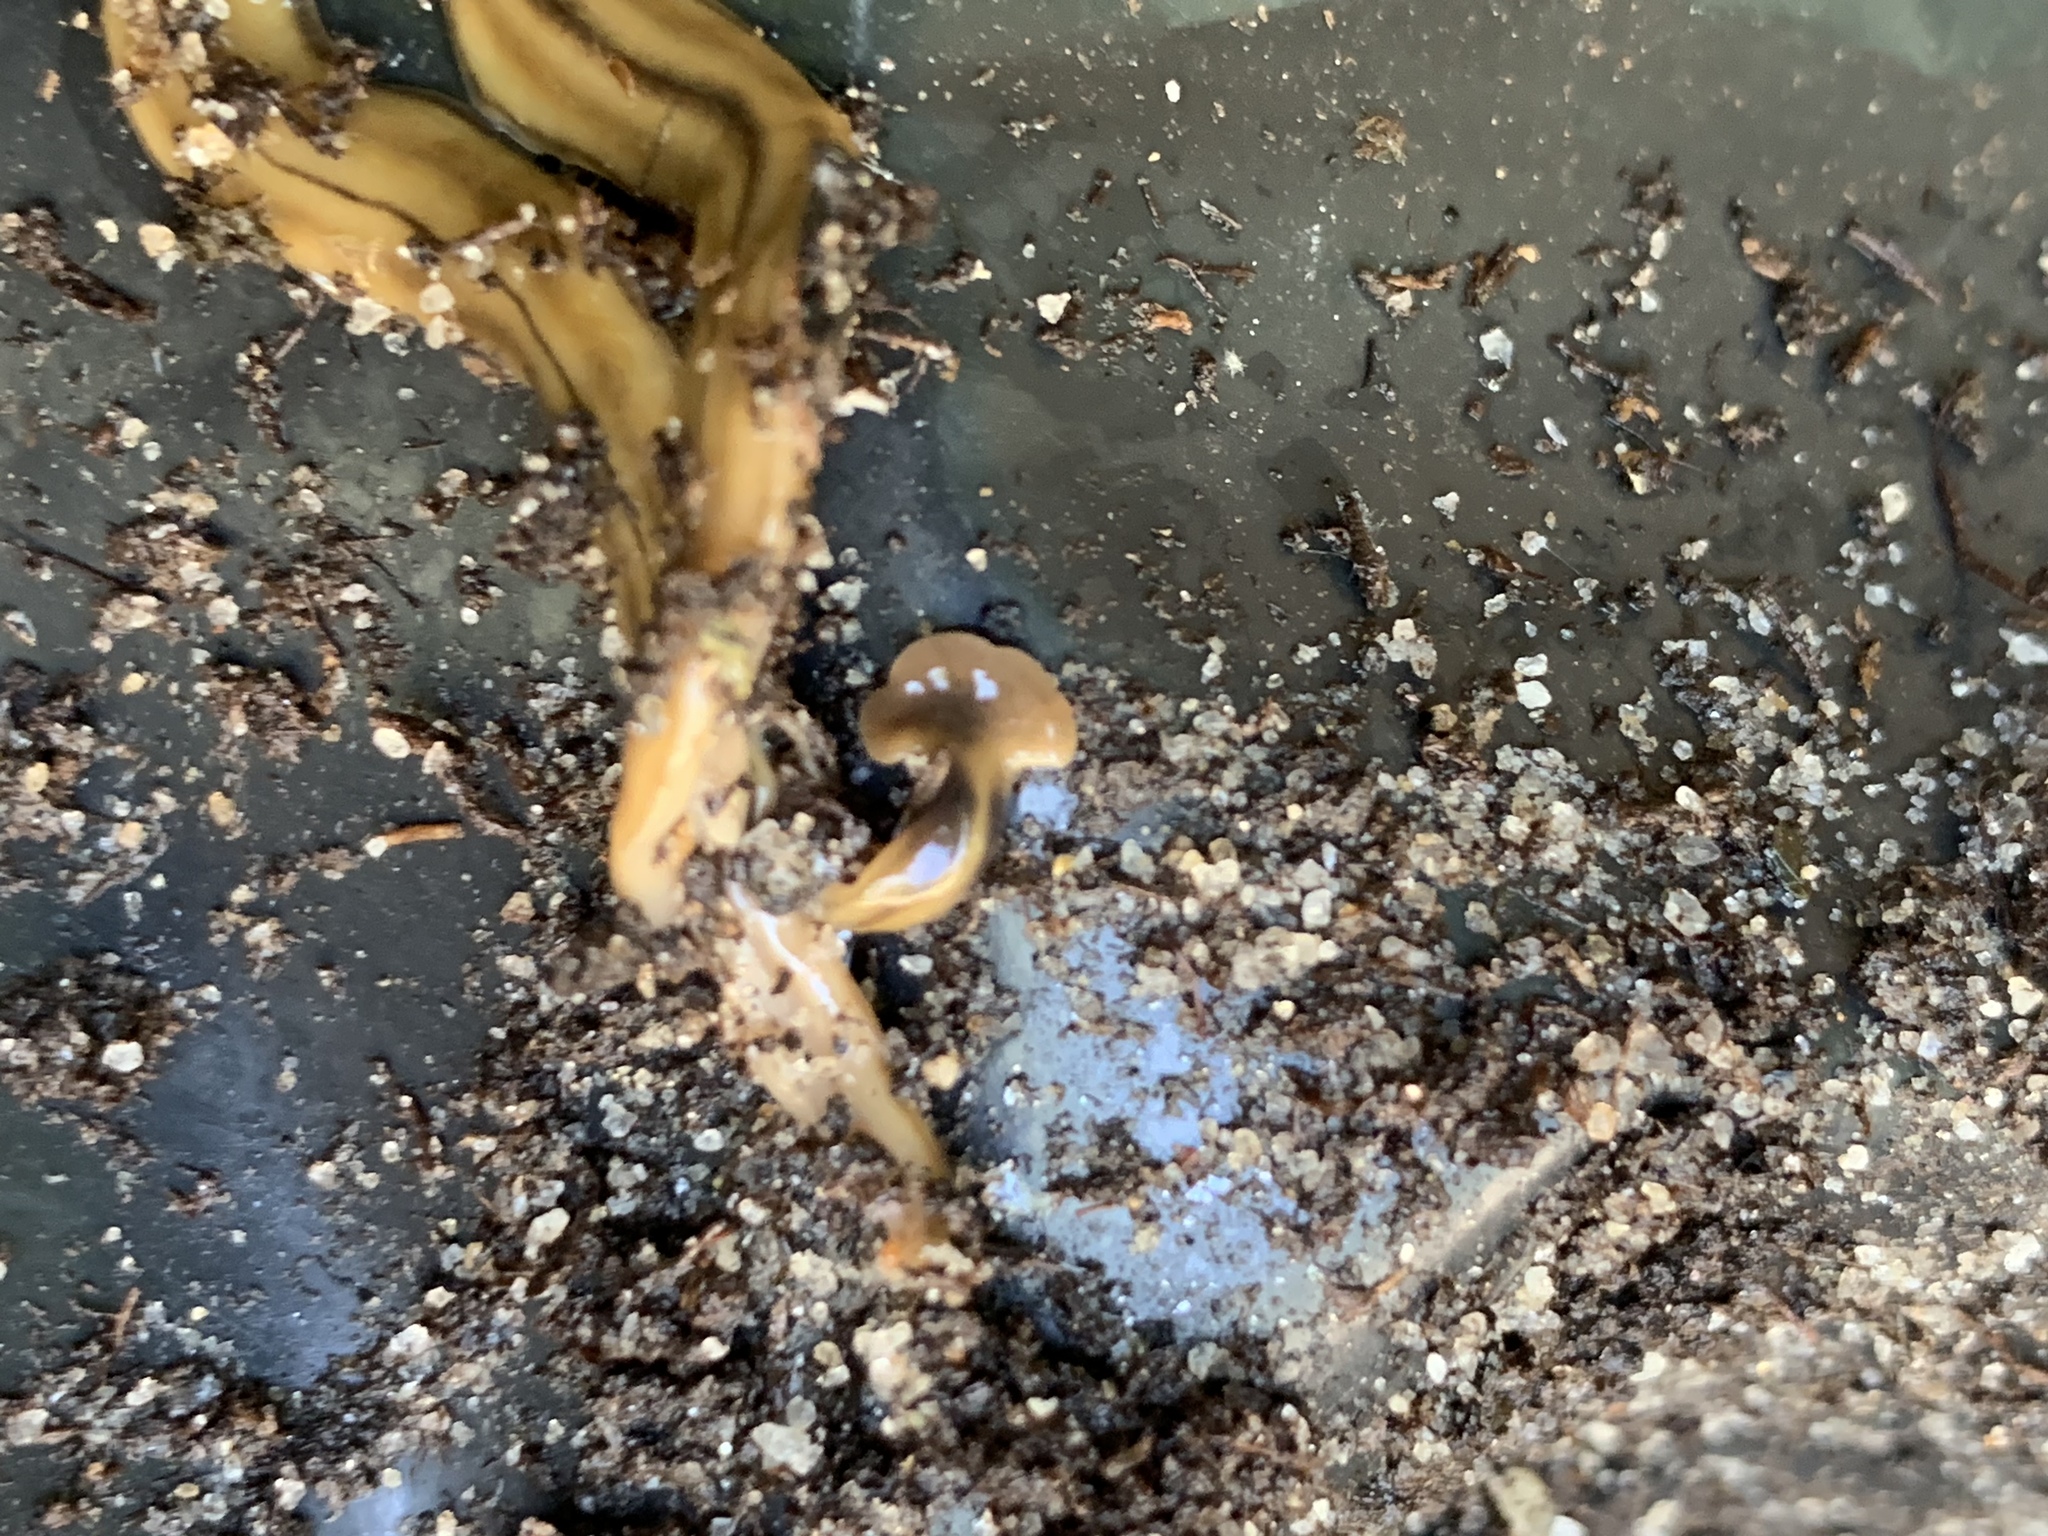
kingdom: Animalia
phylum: Platyhelminthes
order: Tricladida
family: Geoplanidae
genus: Bipalium
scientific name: Bipalium kewense
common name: Hammerhead flatworm
